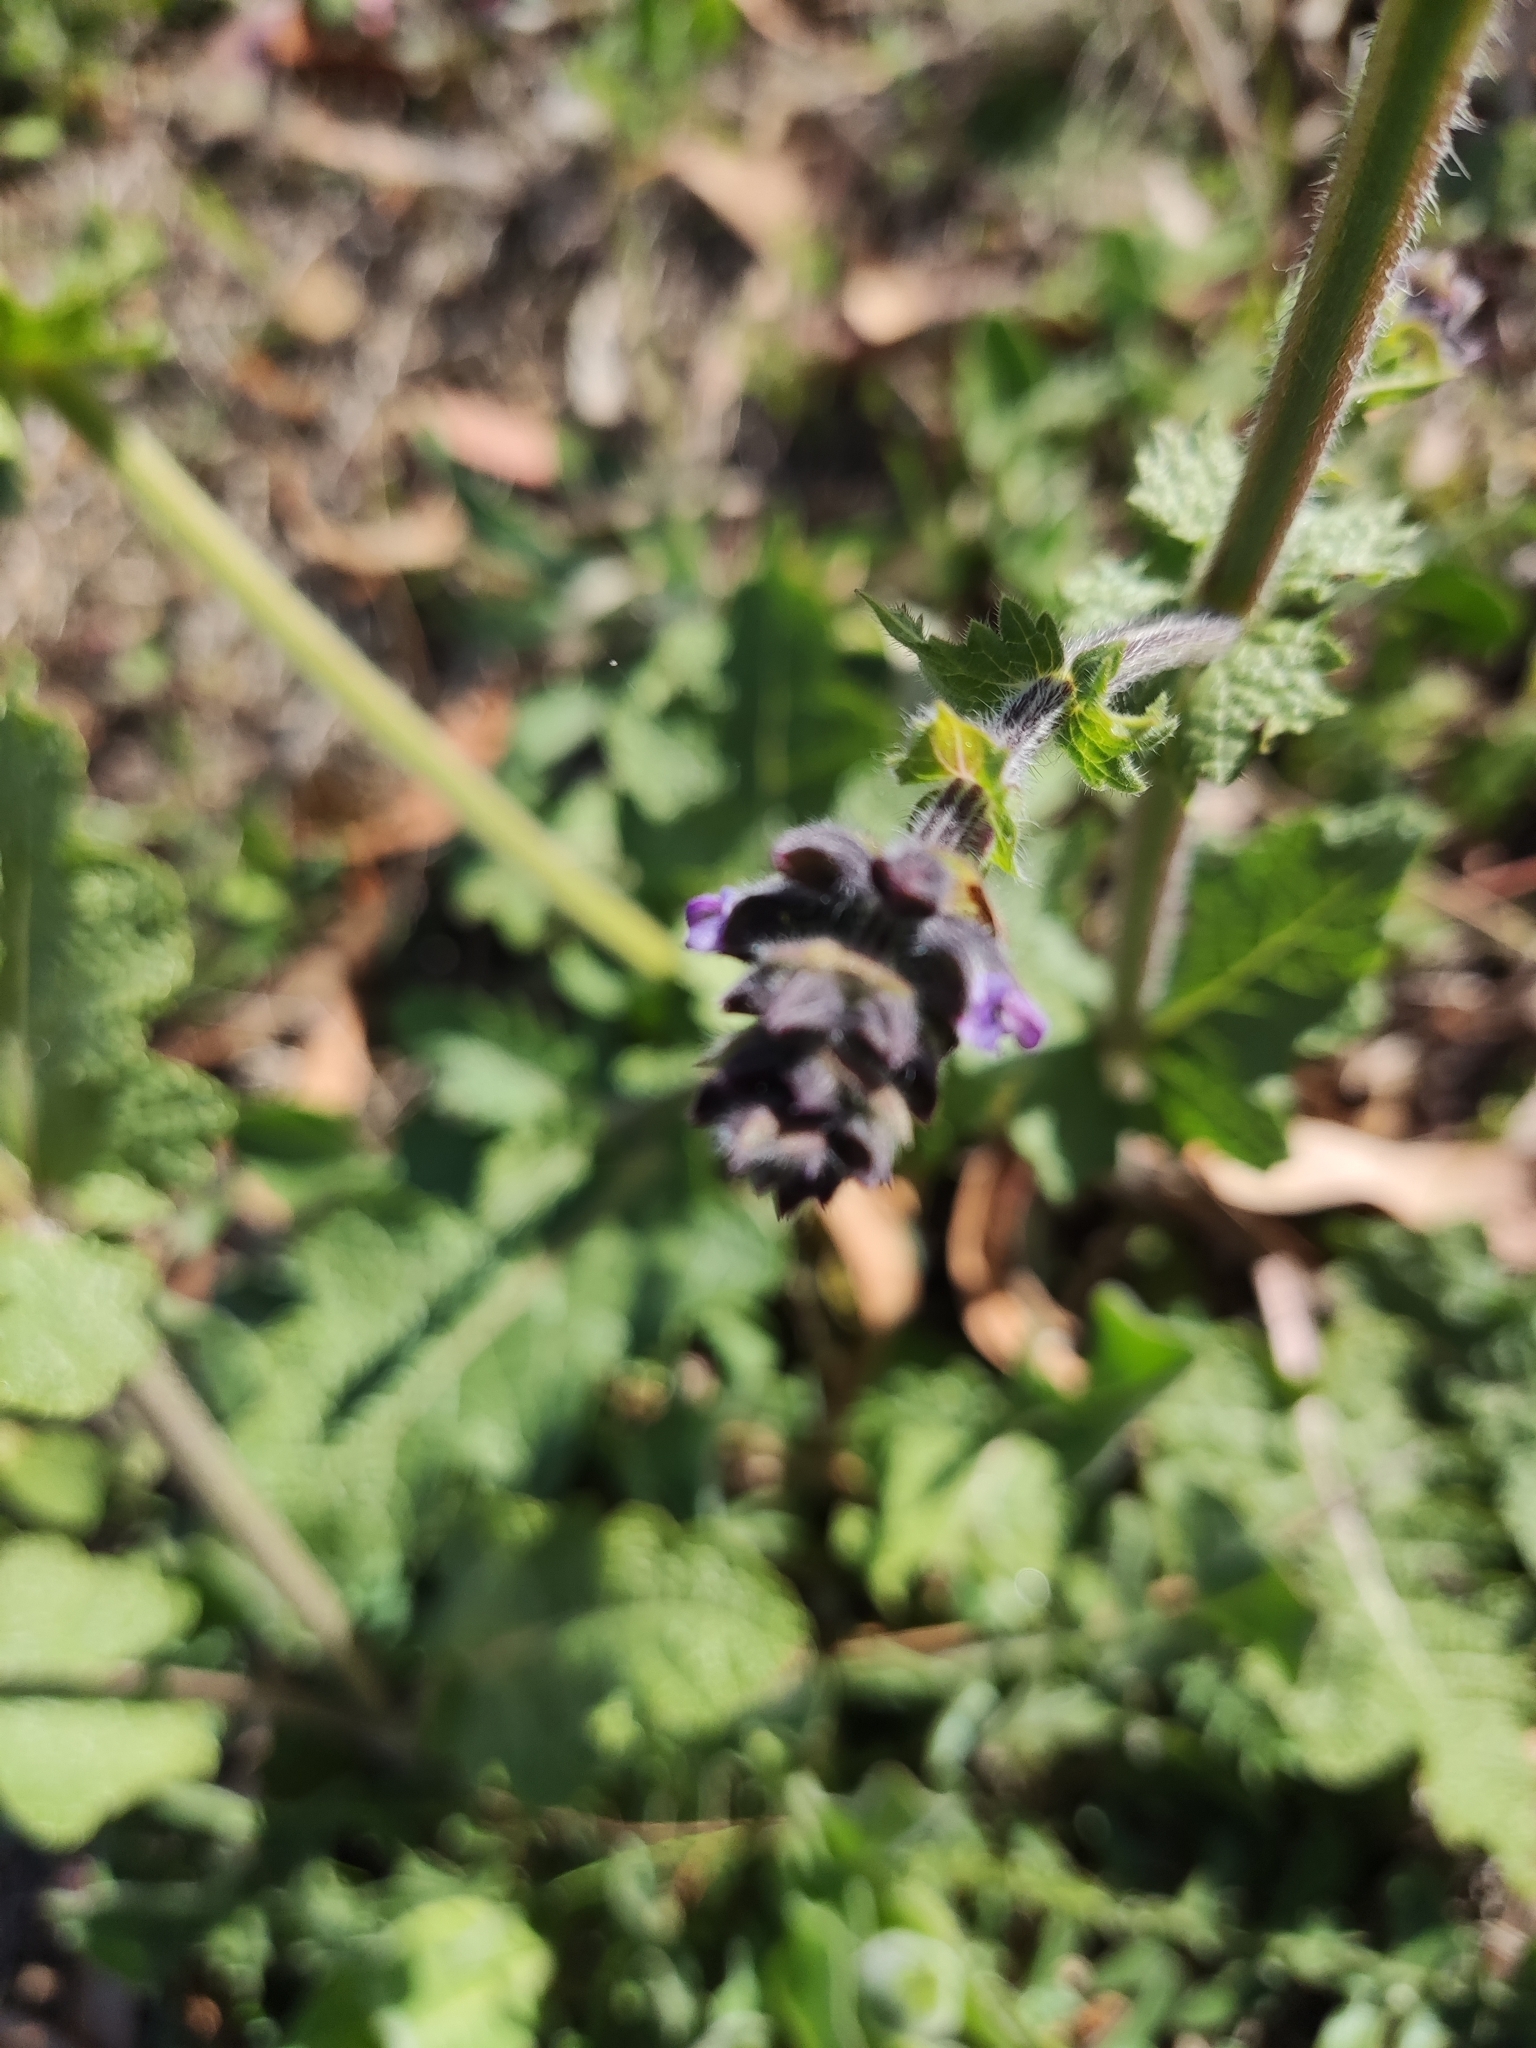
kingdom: Plantae
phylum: Tracheophyta
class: Magnoliopsida
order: Lamiales
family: Lamiaceae
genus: Salvia
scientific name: Salvia verbenaca
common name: Wild clary
